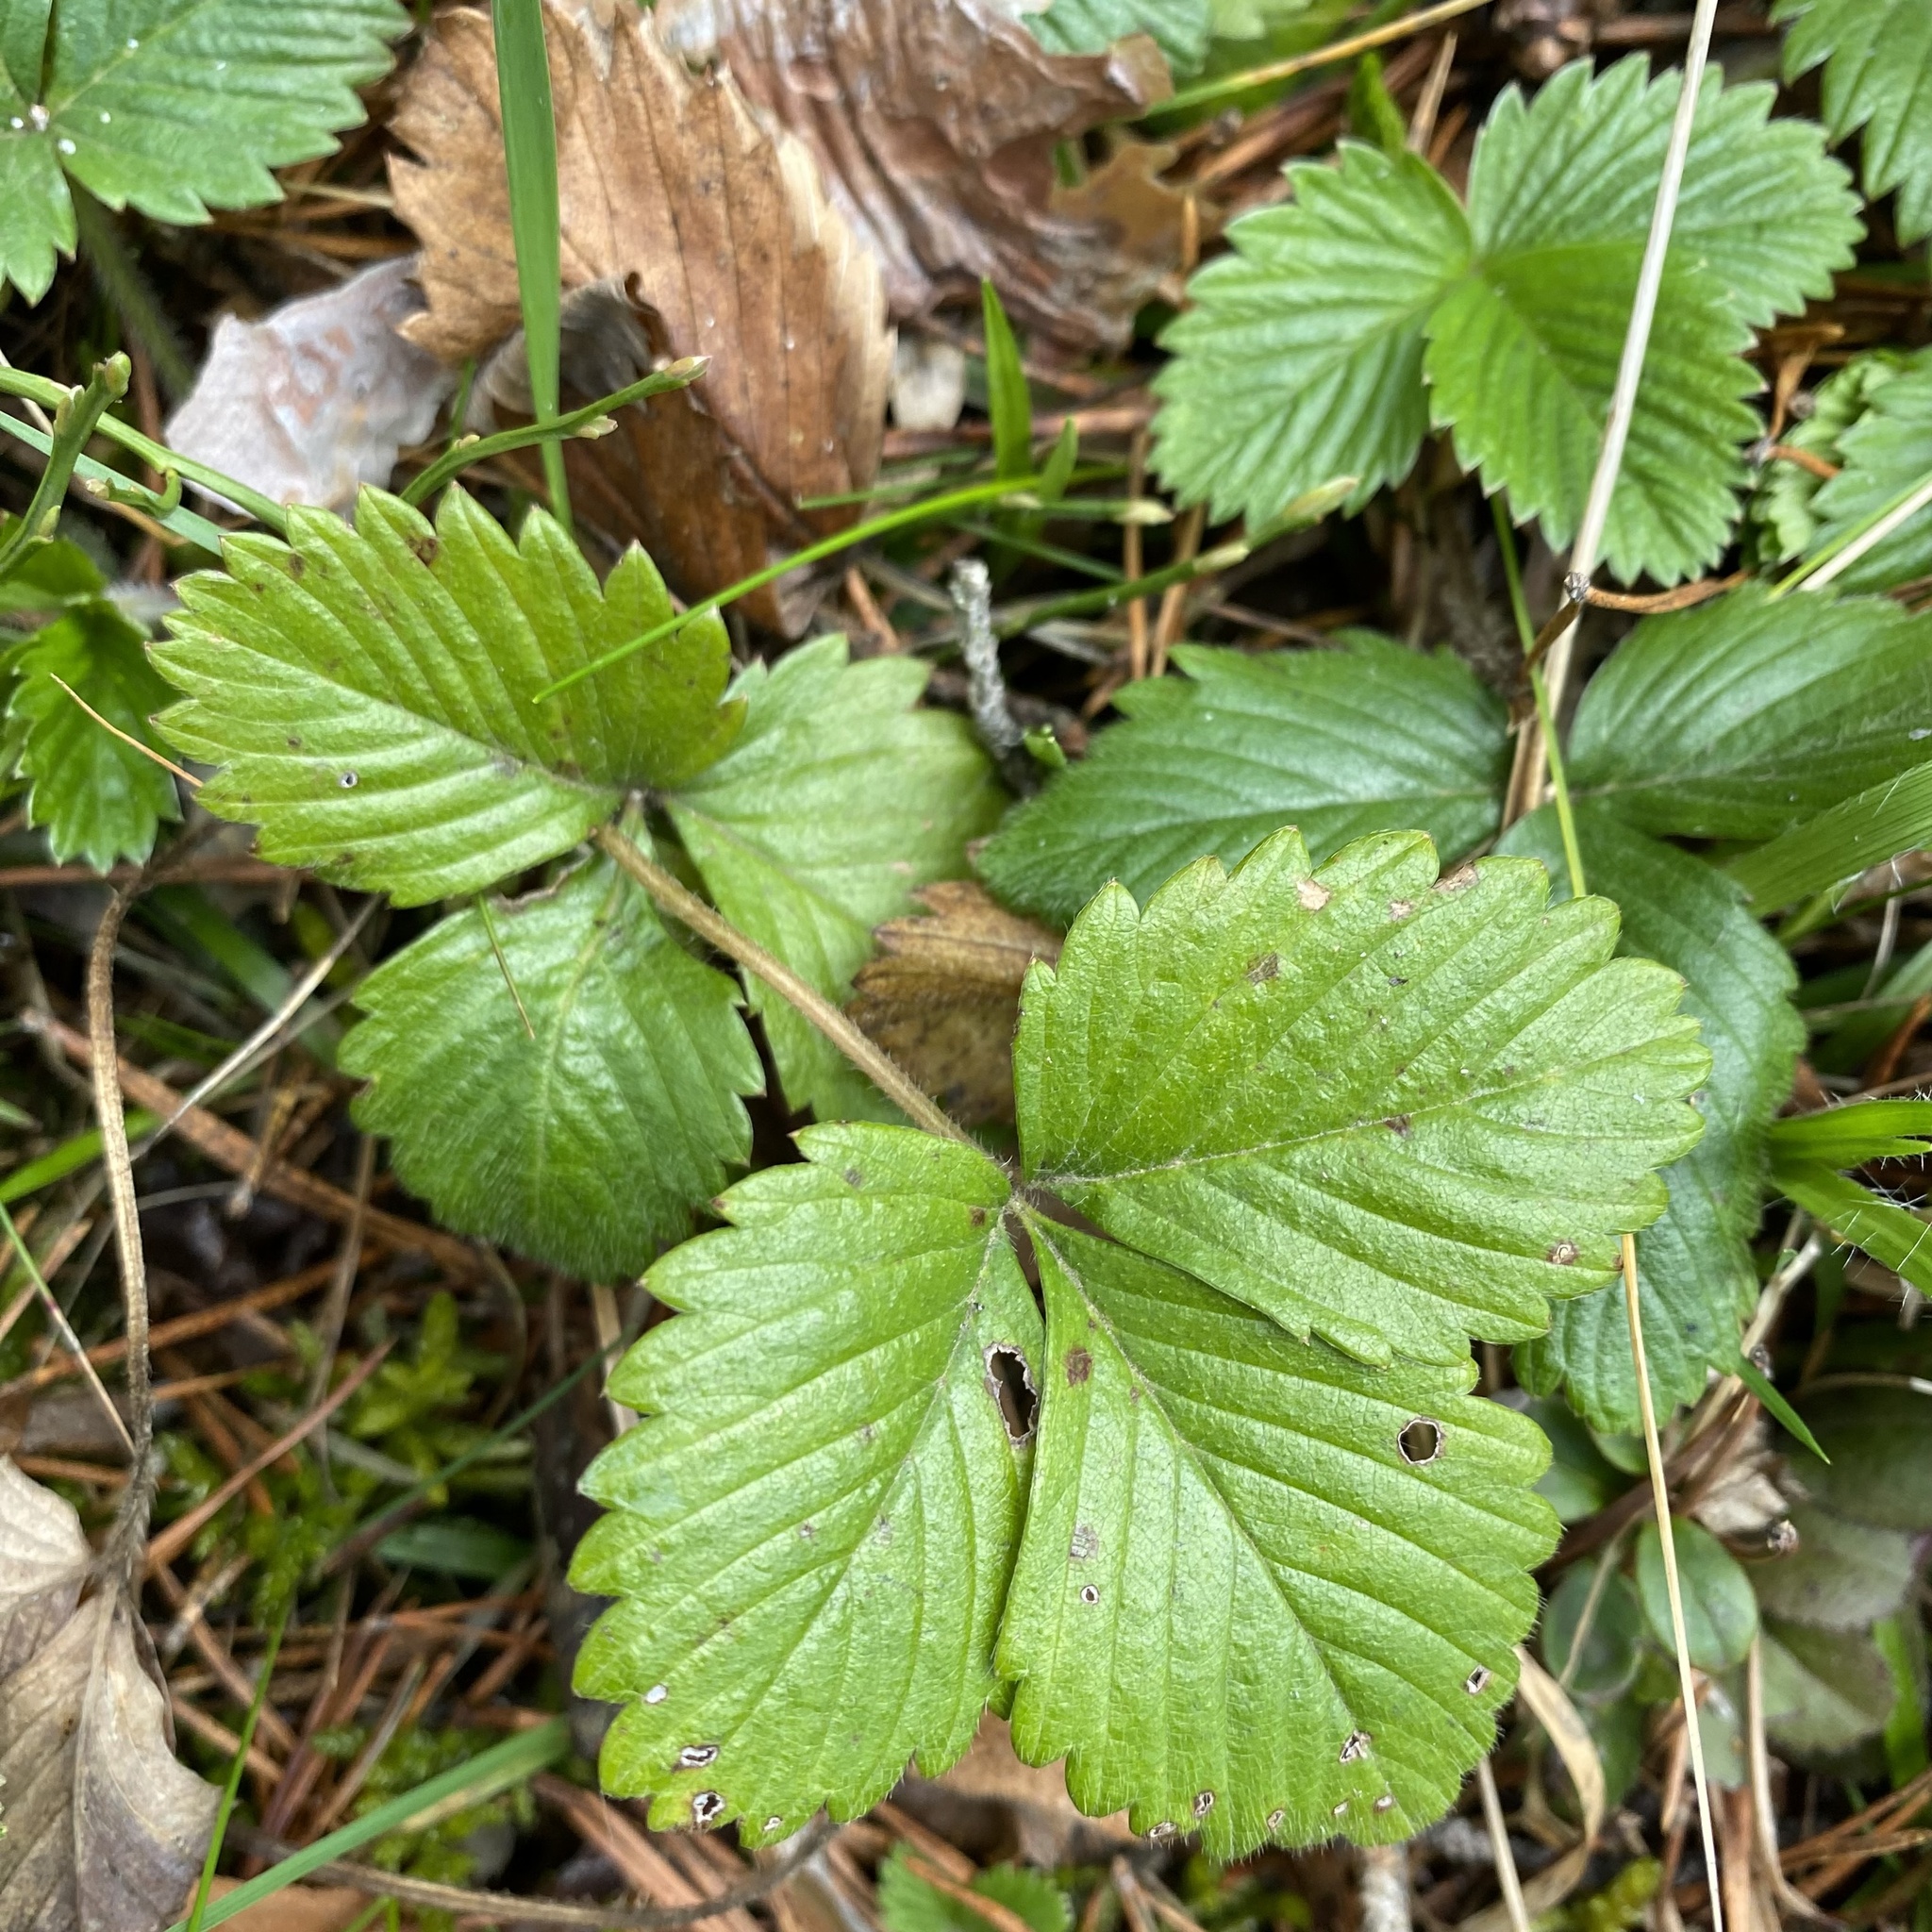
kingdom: Plantae
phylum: Tracheophyta
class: Magnoliopsida
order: Rosales
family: Rosaceae
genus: Fragaria
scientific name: Fragaria vesca
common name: Wild strawberry
